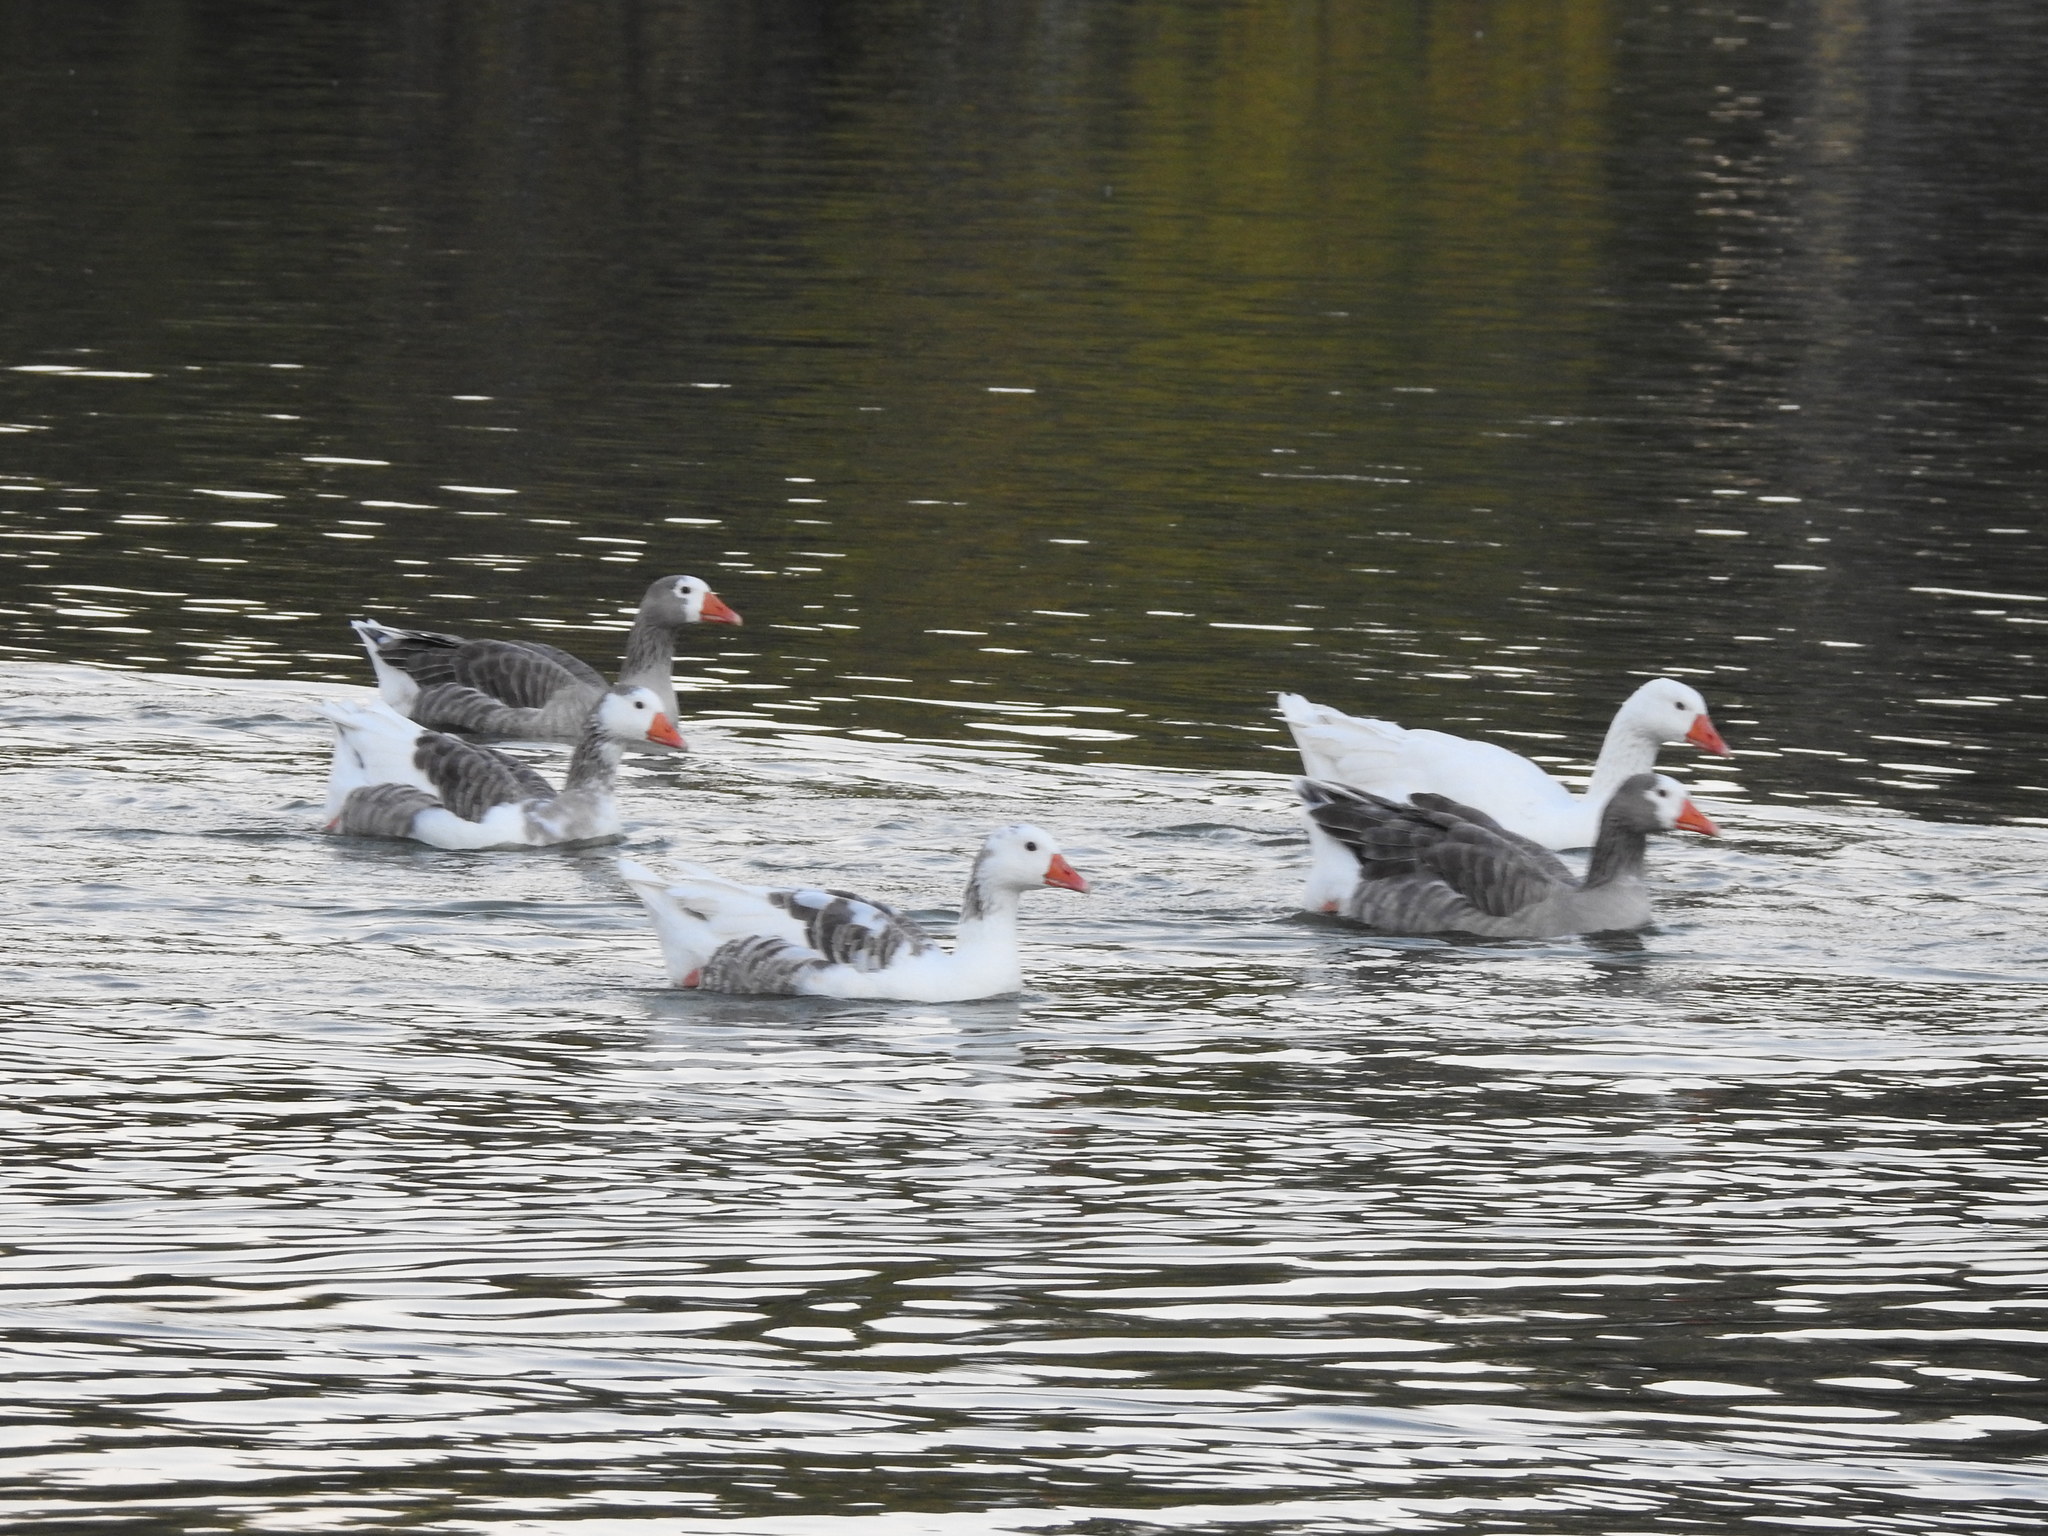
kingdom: Animalia
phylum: Chordata
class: Aves
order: Anseriformes
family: Anatidae
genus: Anser
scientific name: Anser anser
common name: Greylag goose
